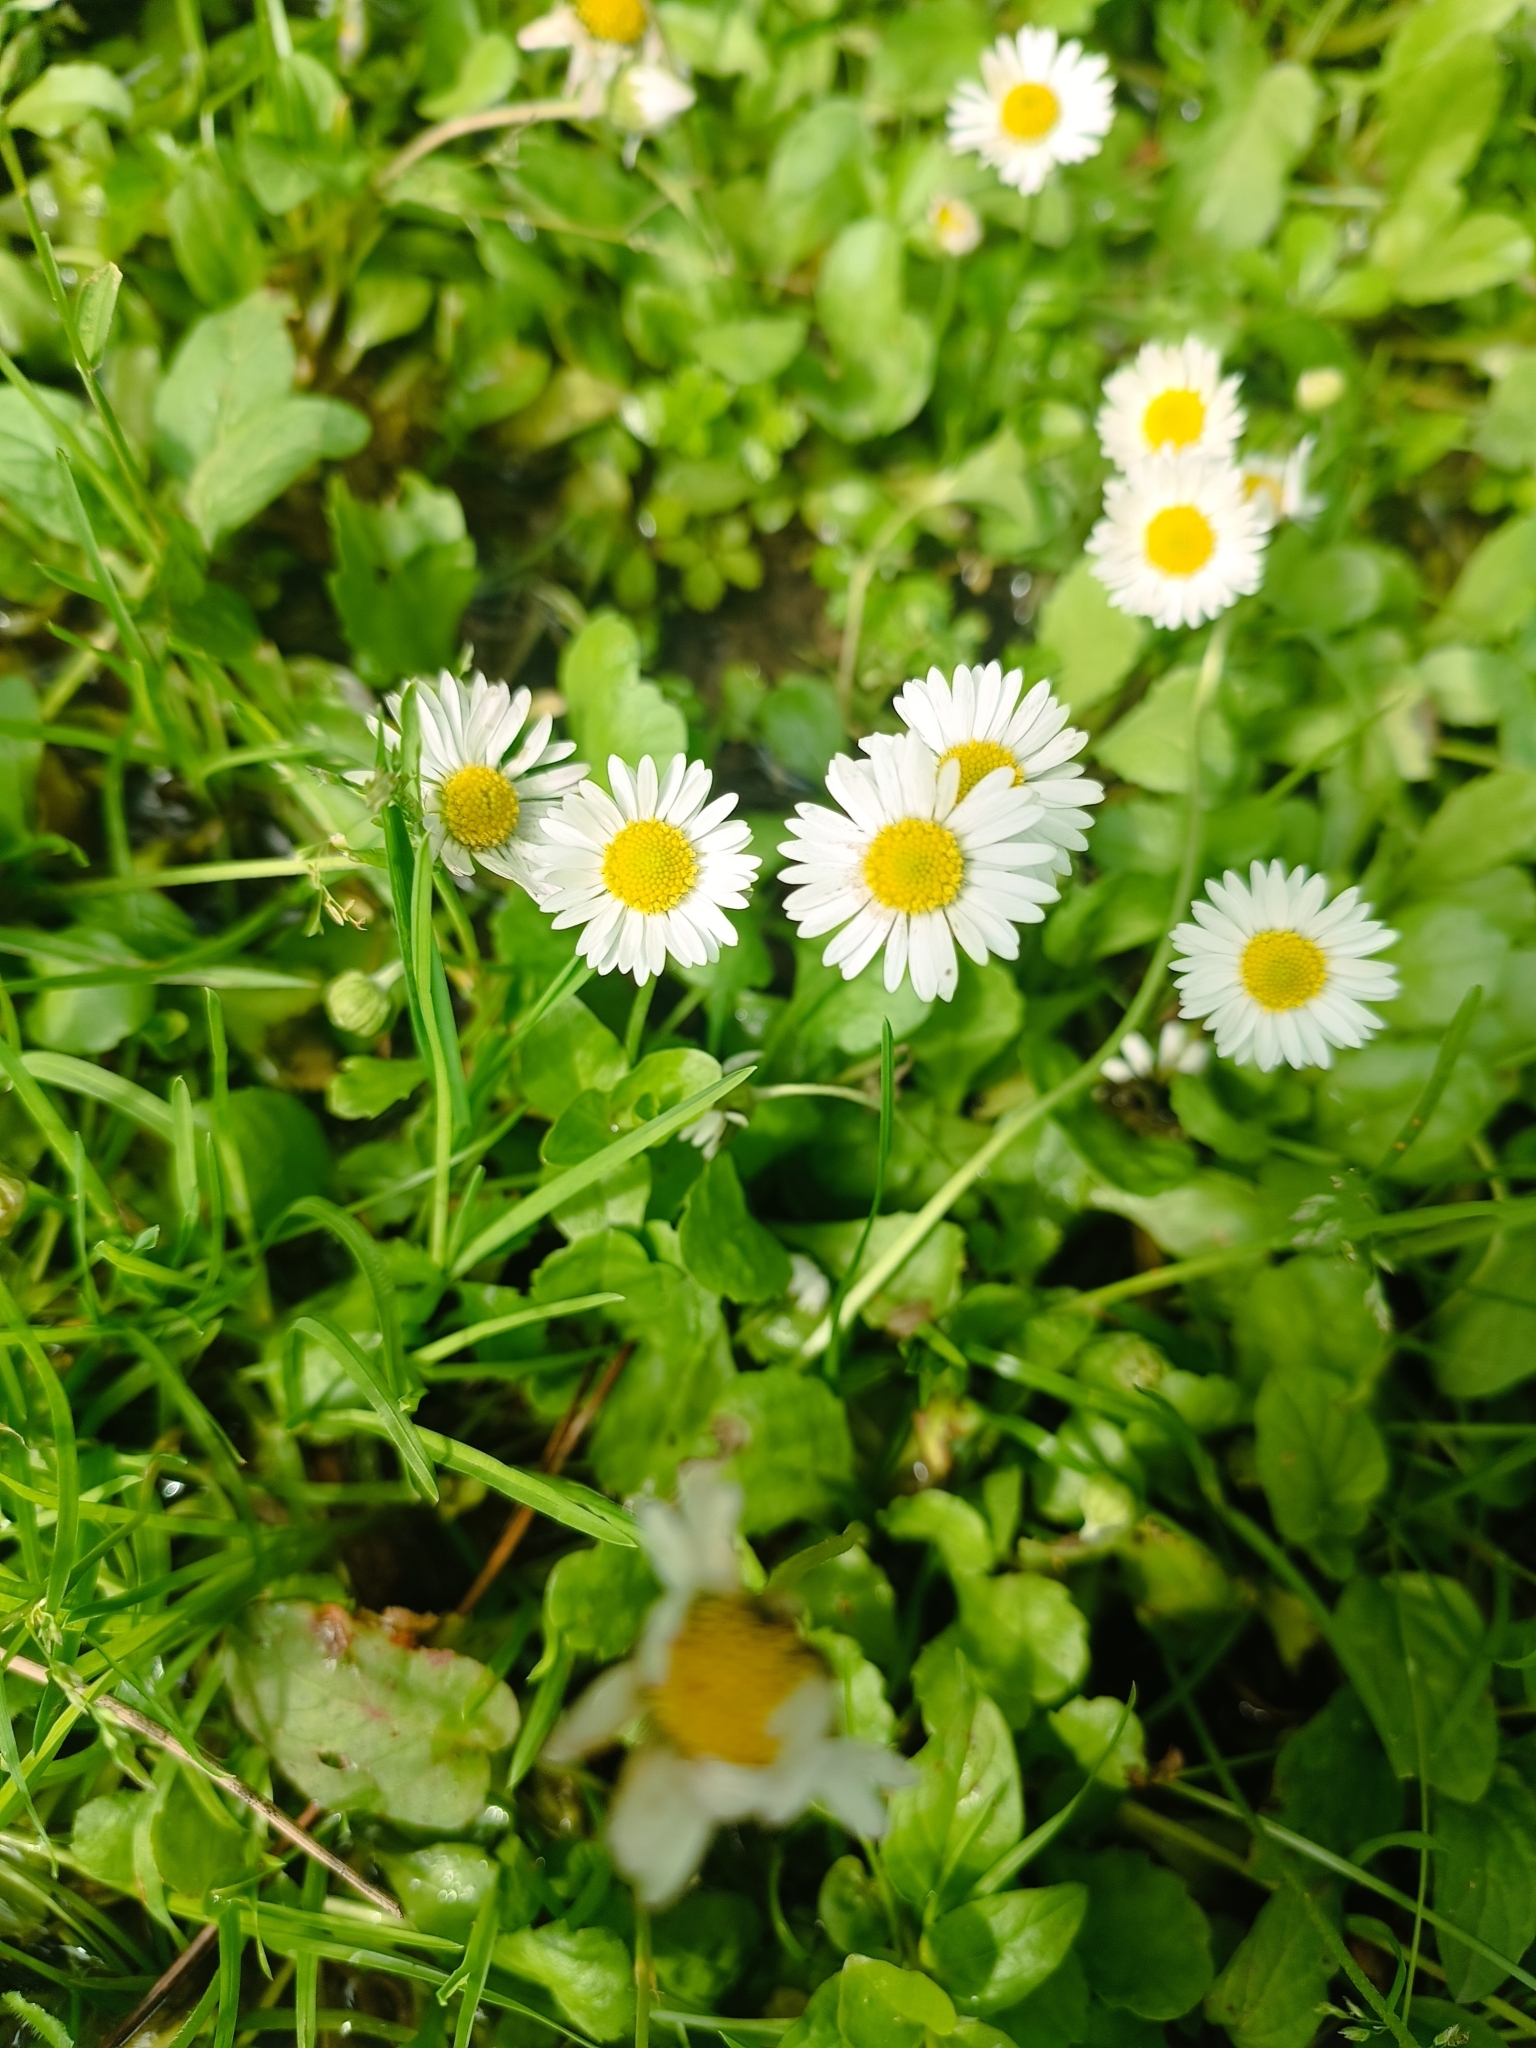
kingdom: Plantae
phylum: Tracheophyta
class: Magnoliopsida
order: Asterales
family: Asteraceae
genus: Bellis
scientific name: Bellis perennis
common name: Lawndaisy
